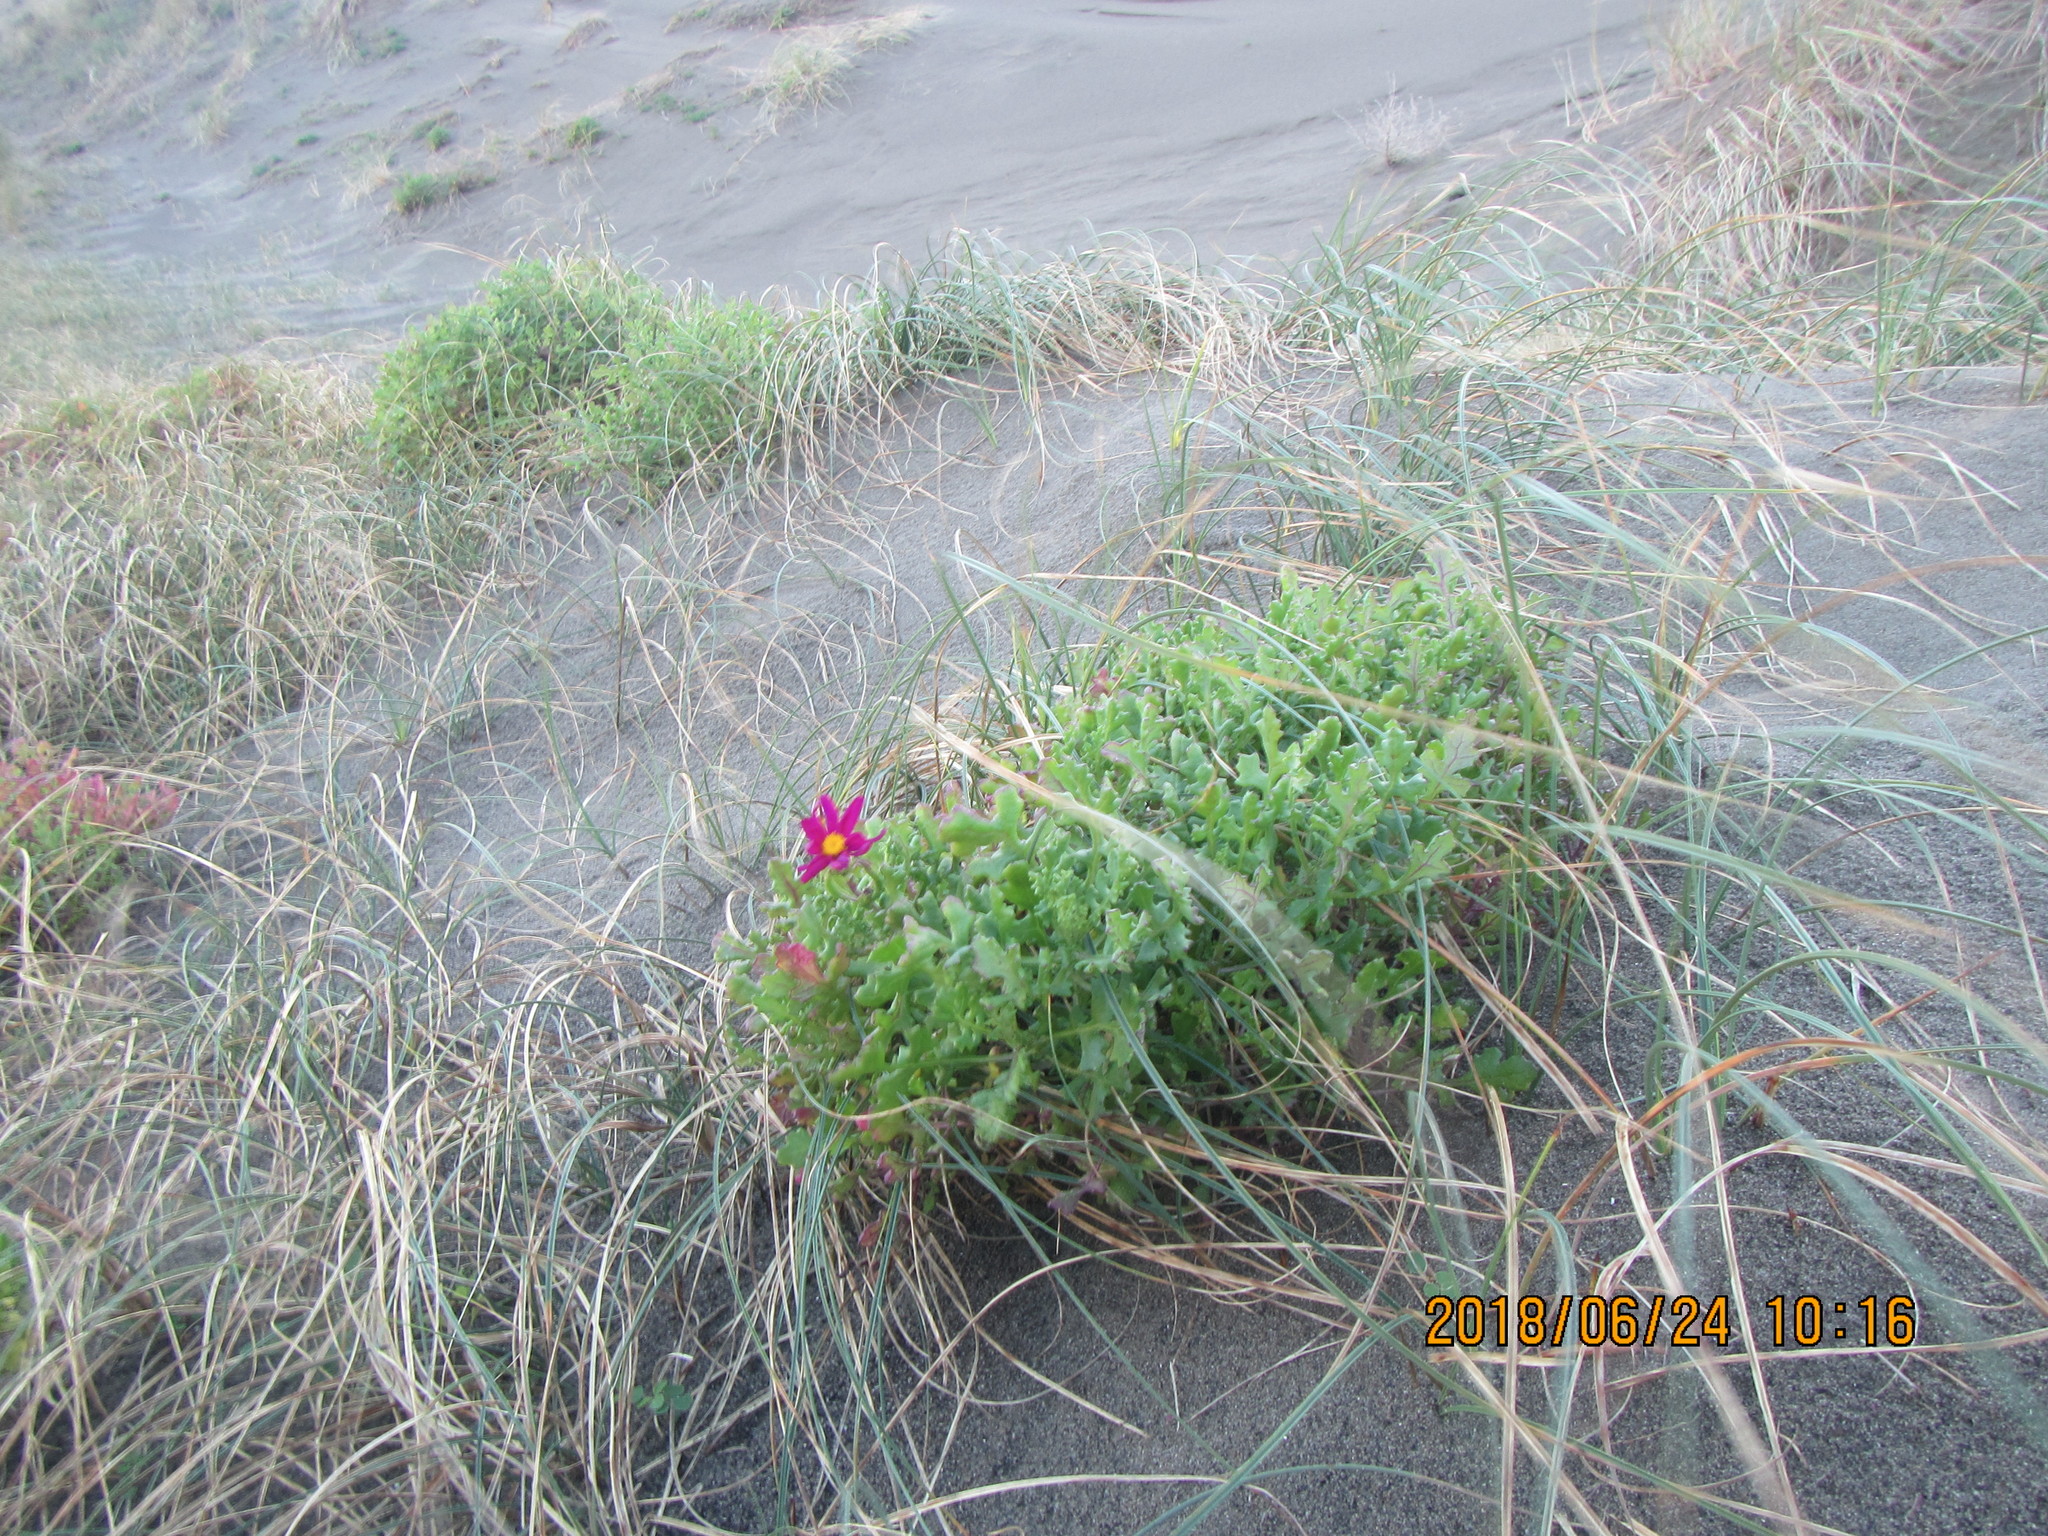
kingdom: Plantae
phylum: Tracheophyta
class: Magnoliopsida
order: Asterales
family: Asteraceae
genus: Senecio
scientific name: Senecio elegans
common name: Purple groundsel
